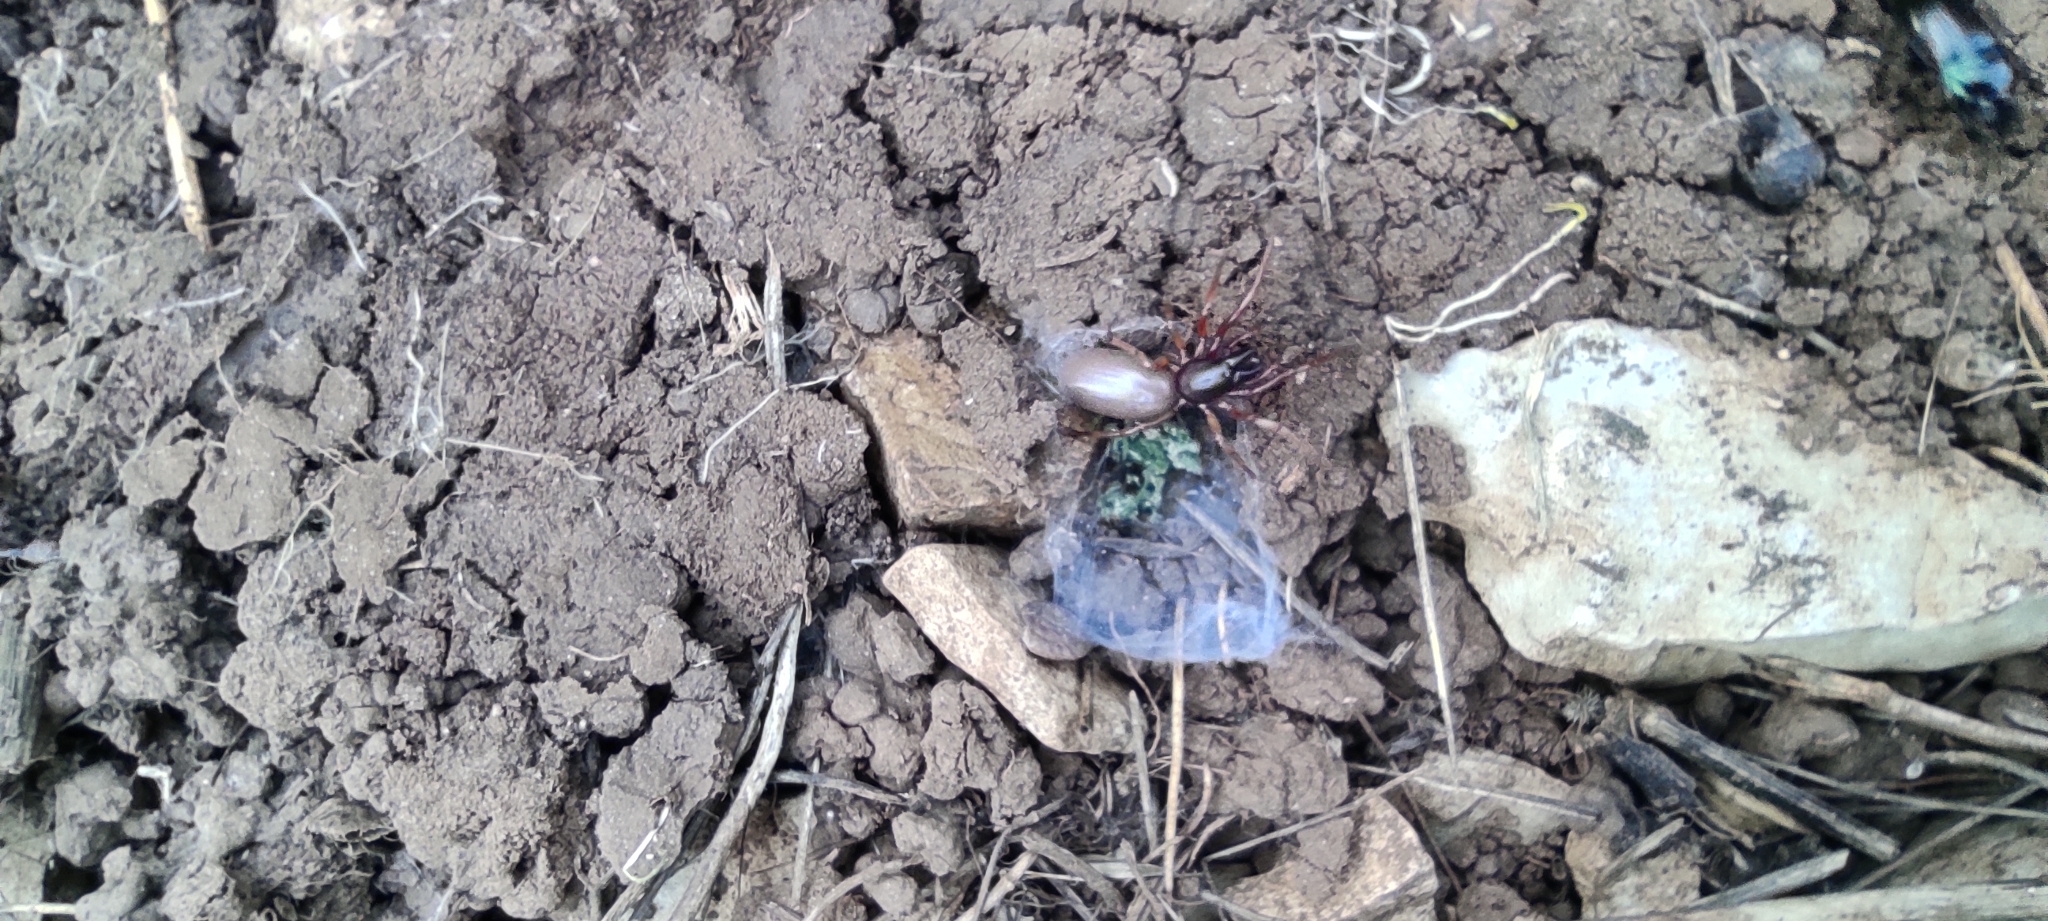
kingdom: Animalia
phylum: Arthropoda
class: Arachnida
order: Araneae
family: Dysderidae
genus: Dysdera
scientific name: Dysdera
